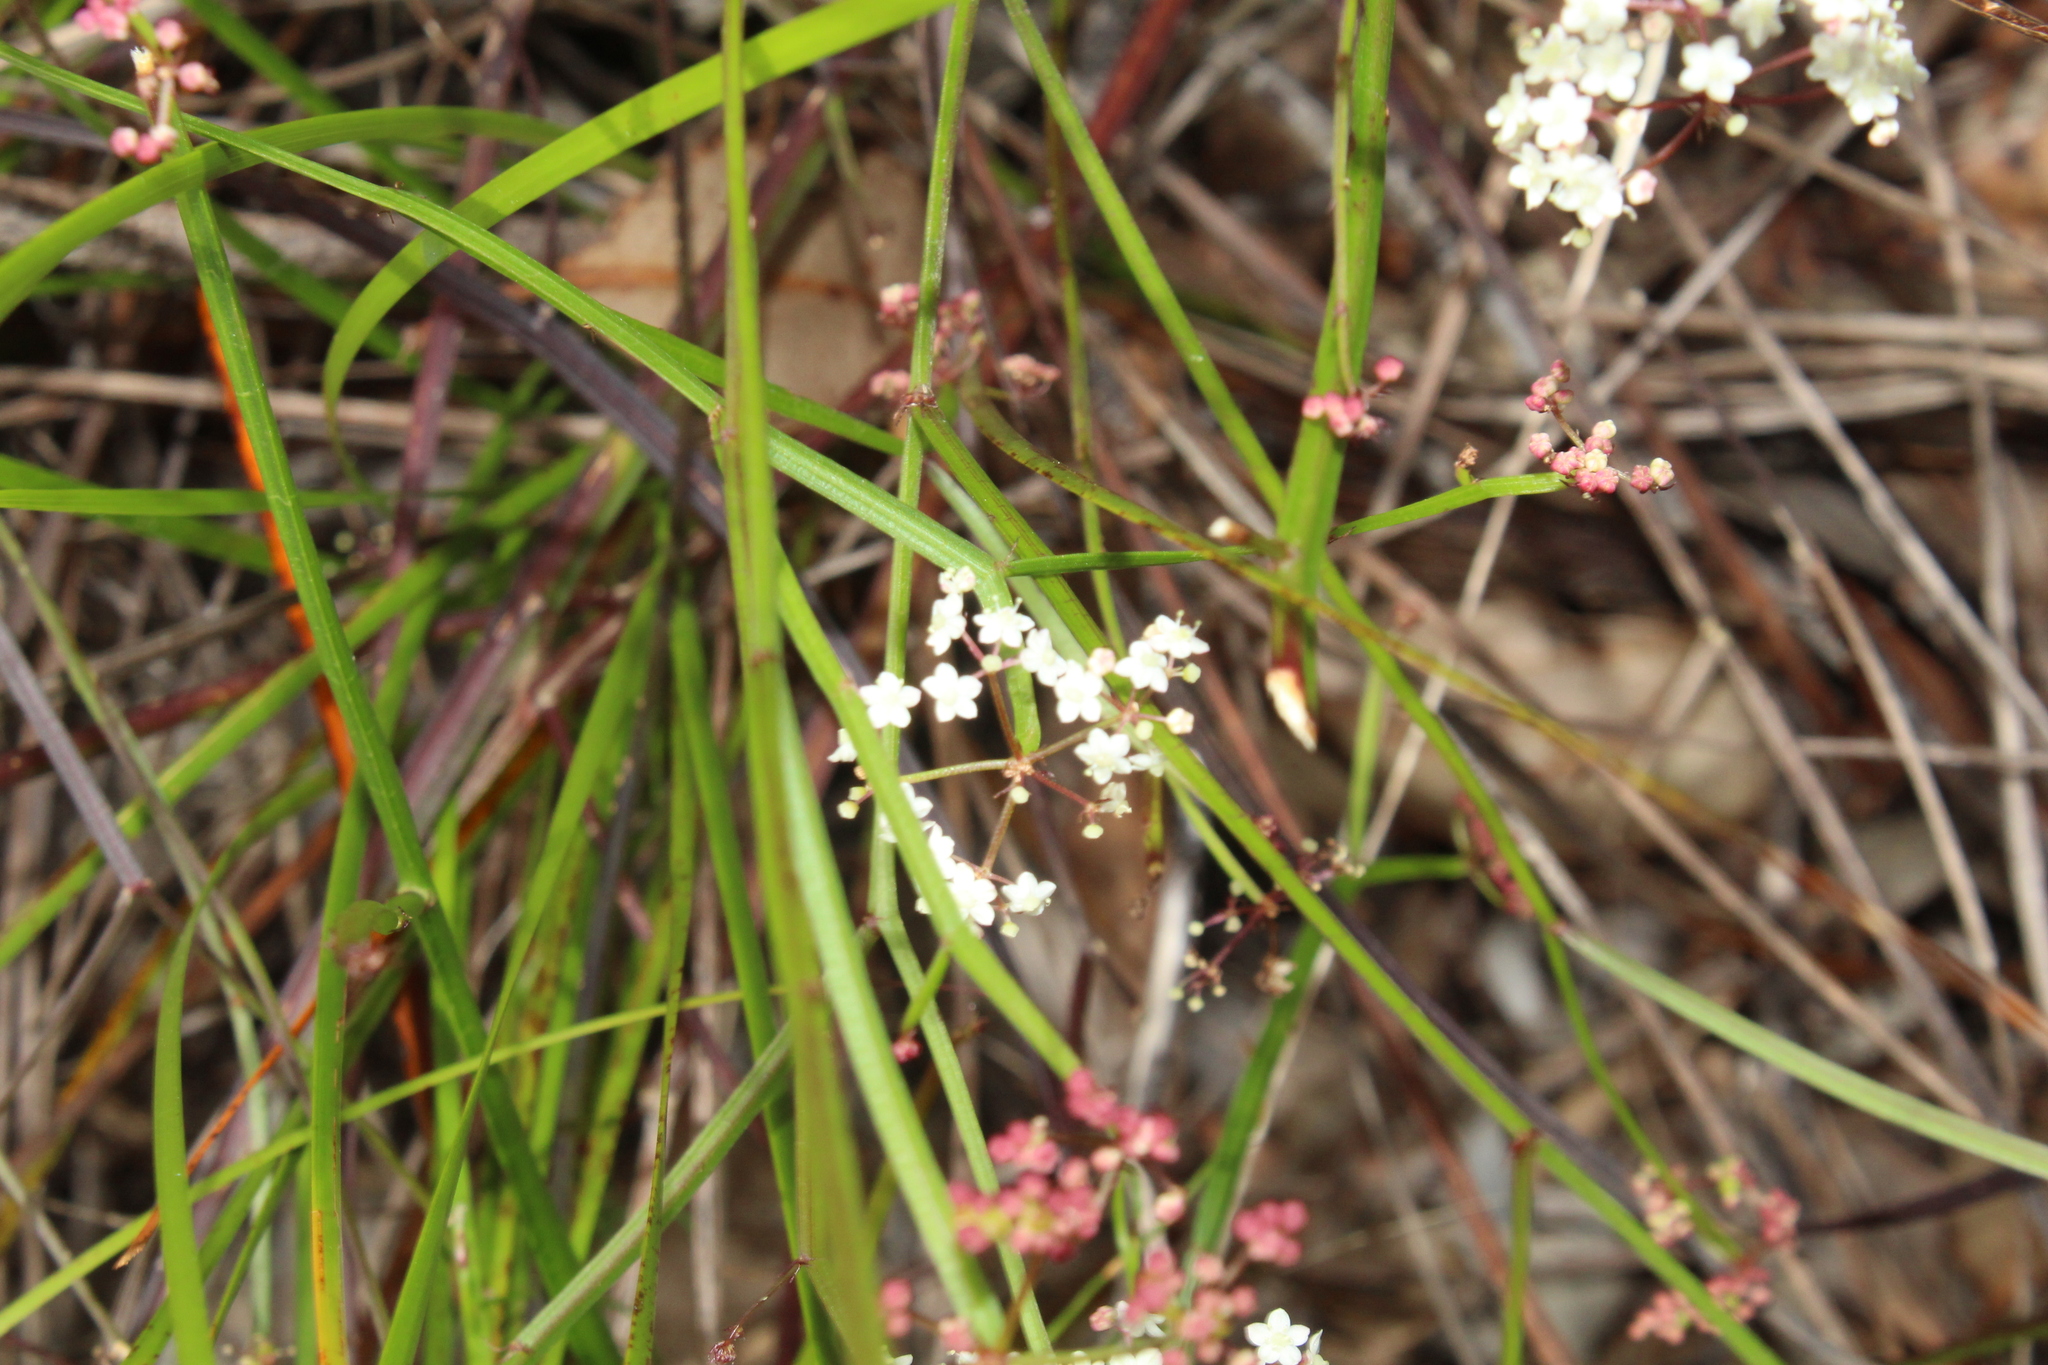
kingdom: Plantae
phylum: Tracheophyta
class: Magnoliopsida
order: Apiales
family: Apiaceae
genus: Platysace
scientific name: Platysace compressa
